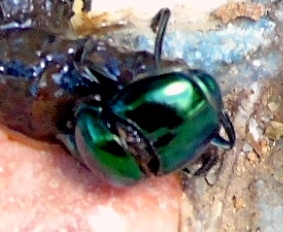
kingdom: Animalia
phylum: Arthropoda
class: Insecta
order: Coleoptera
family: Scarabaeidae
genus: Canthon
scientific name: Canthon
